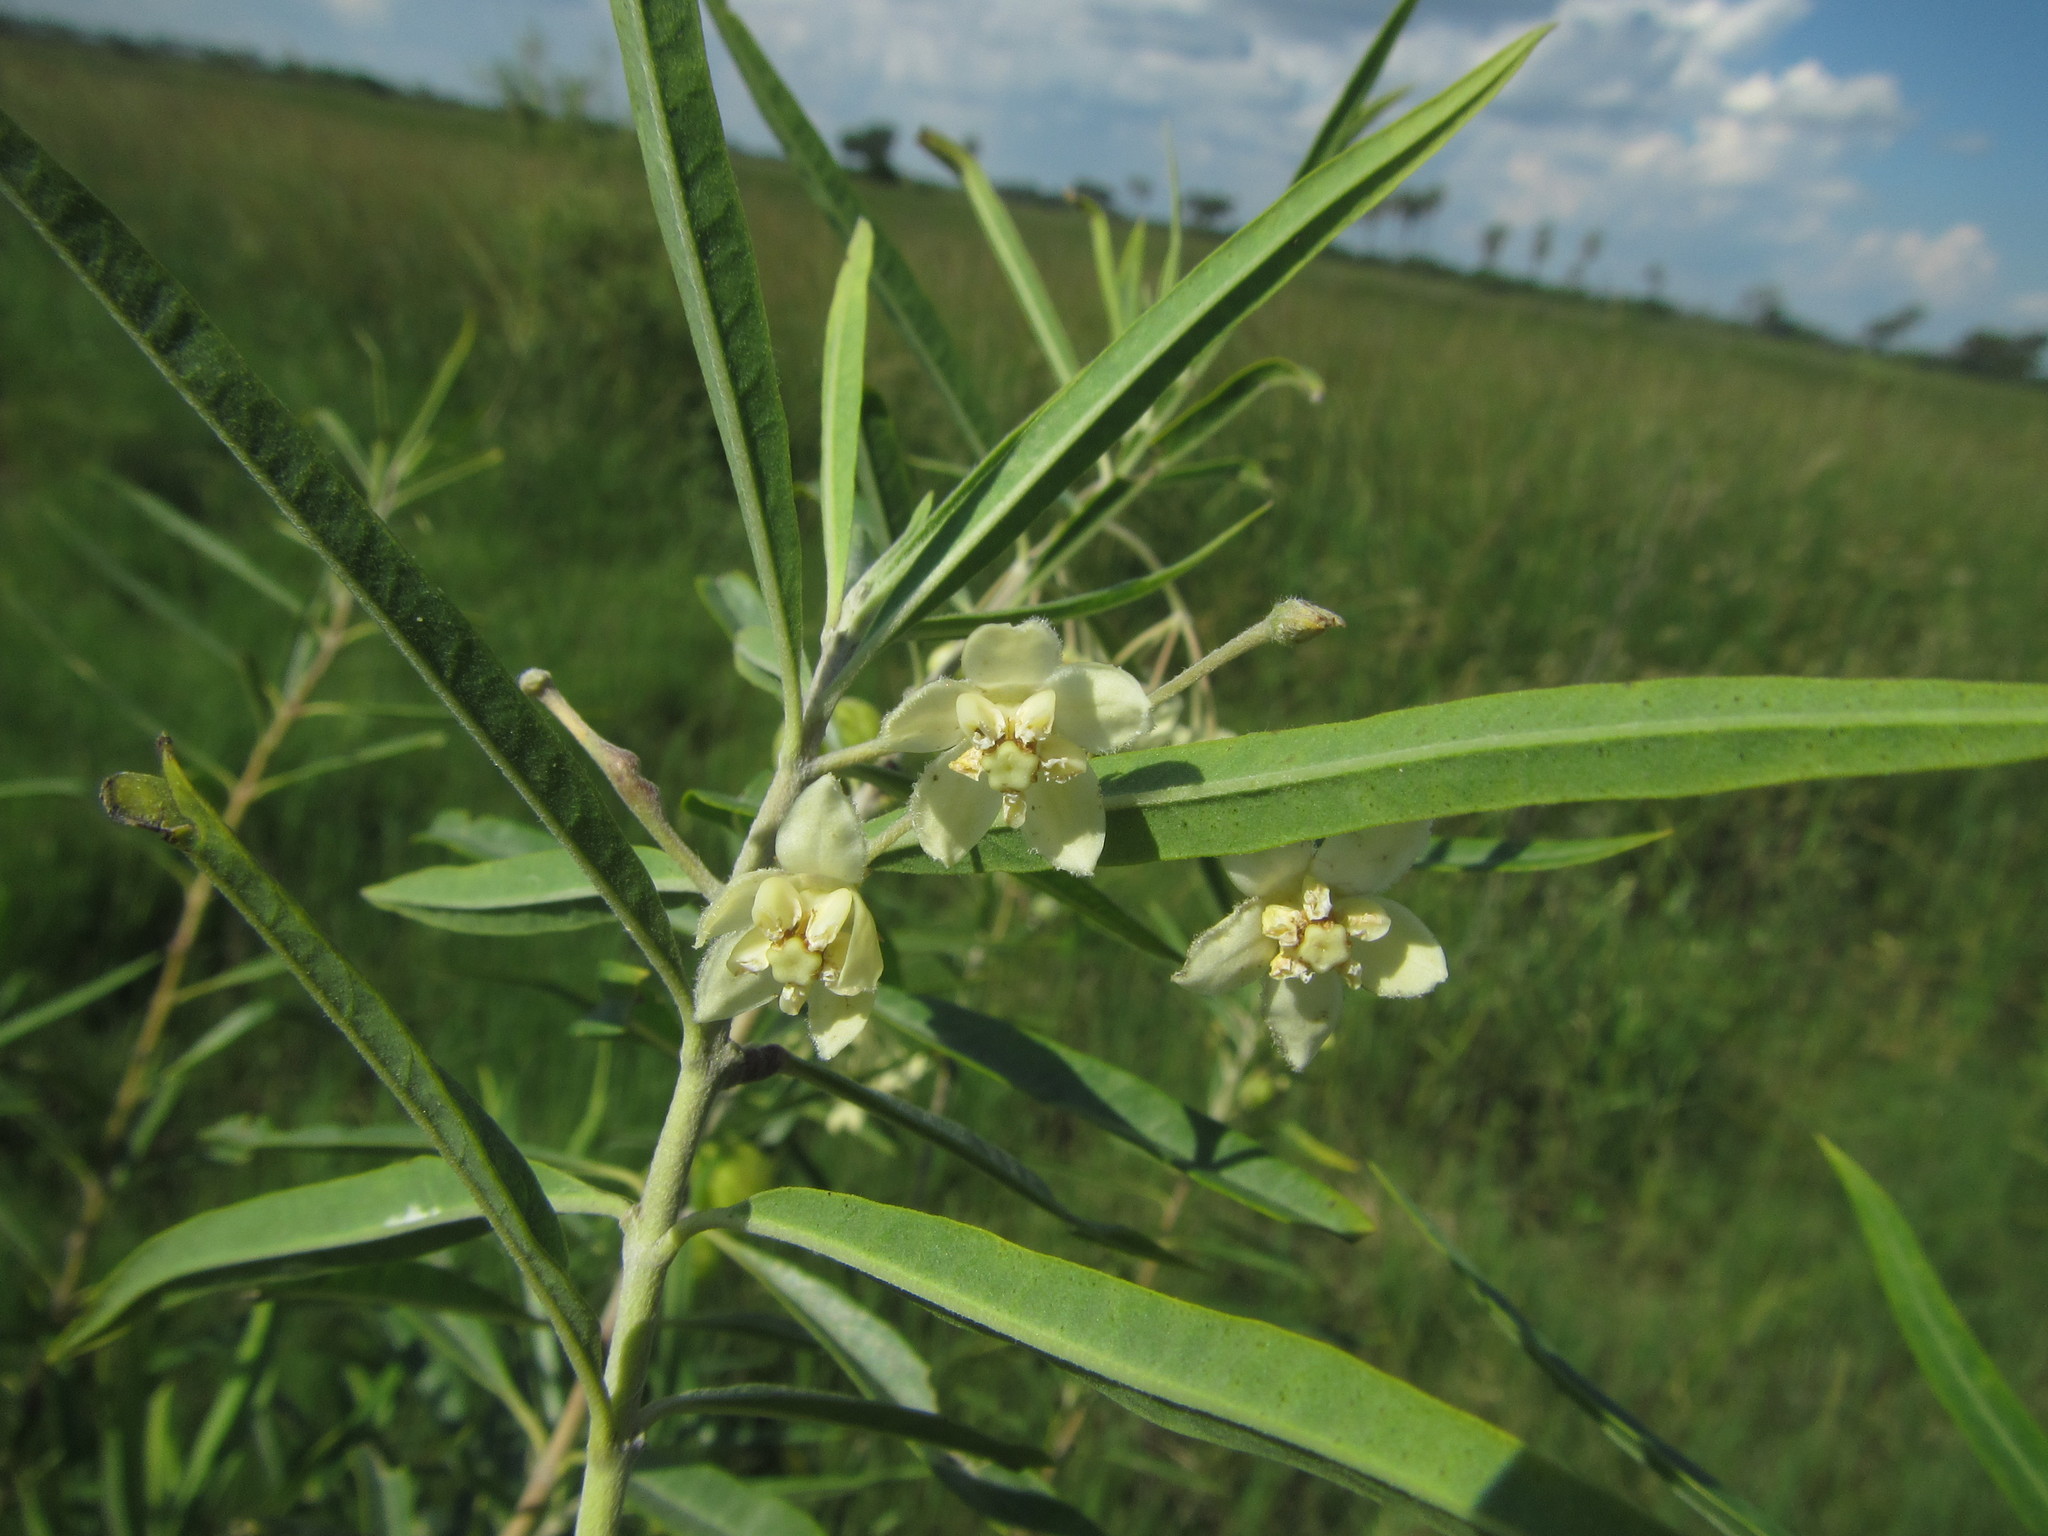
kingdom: Plantae
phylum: Tracheophyta
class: Magnoliopsida
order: Gentianales
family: Apocynaceae
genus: Gomphocarpus
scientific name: Gomphocarpus fruticosus
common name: Milkweed
